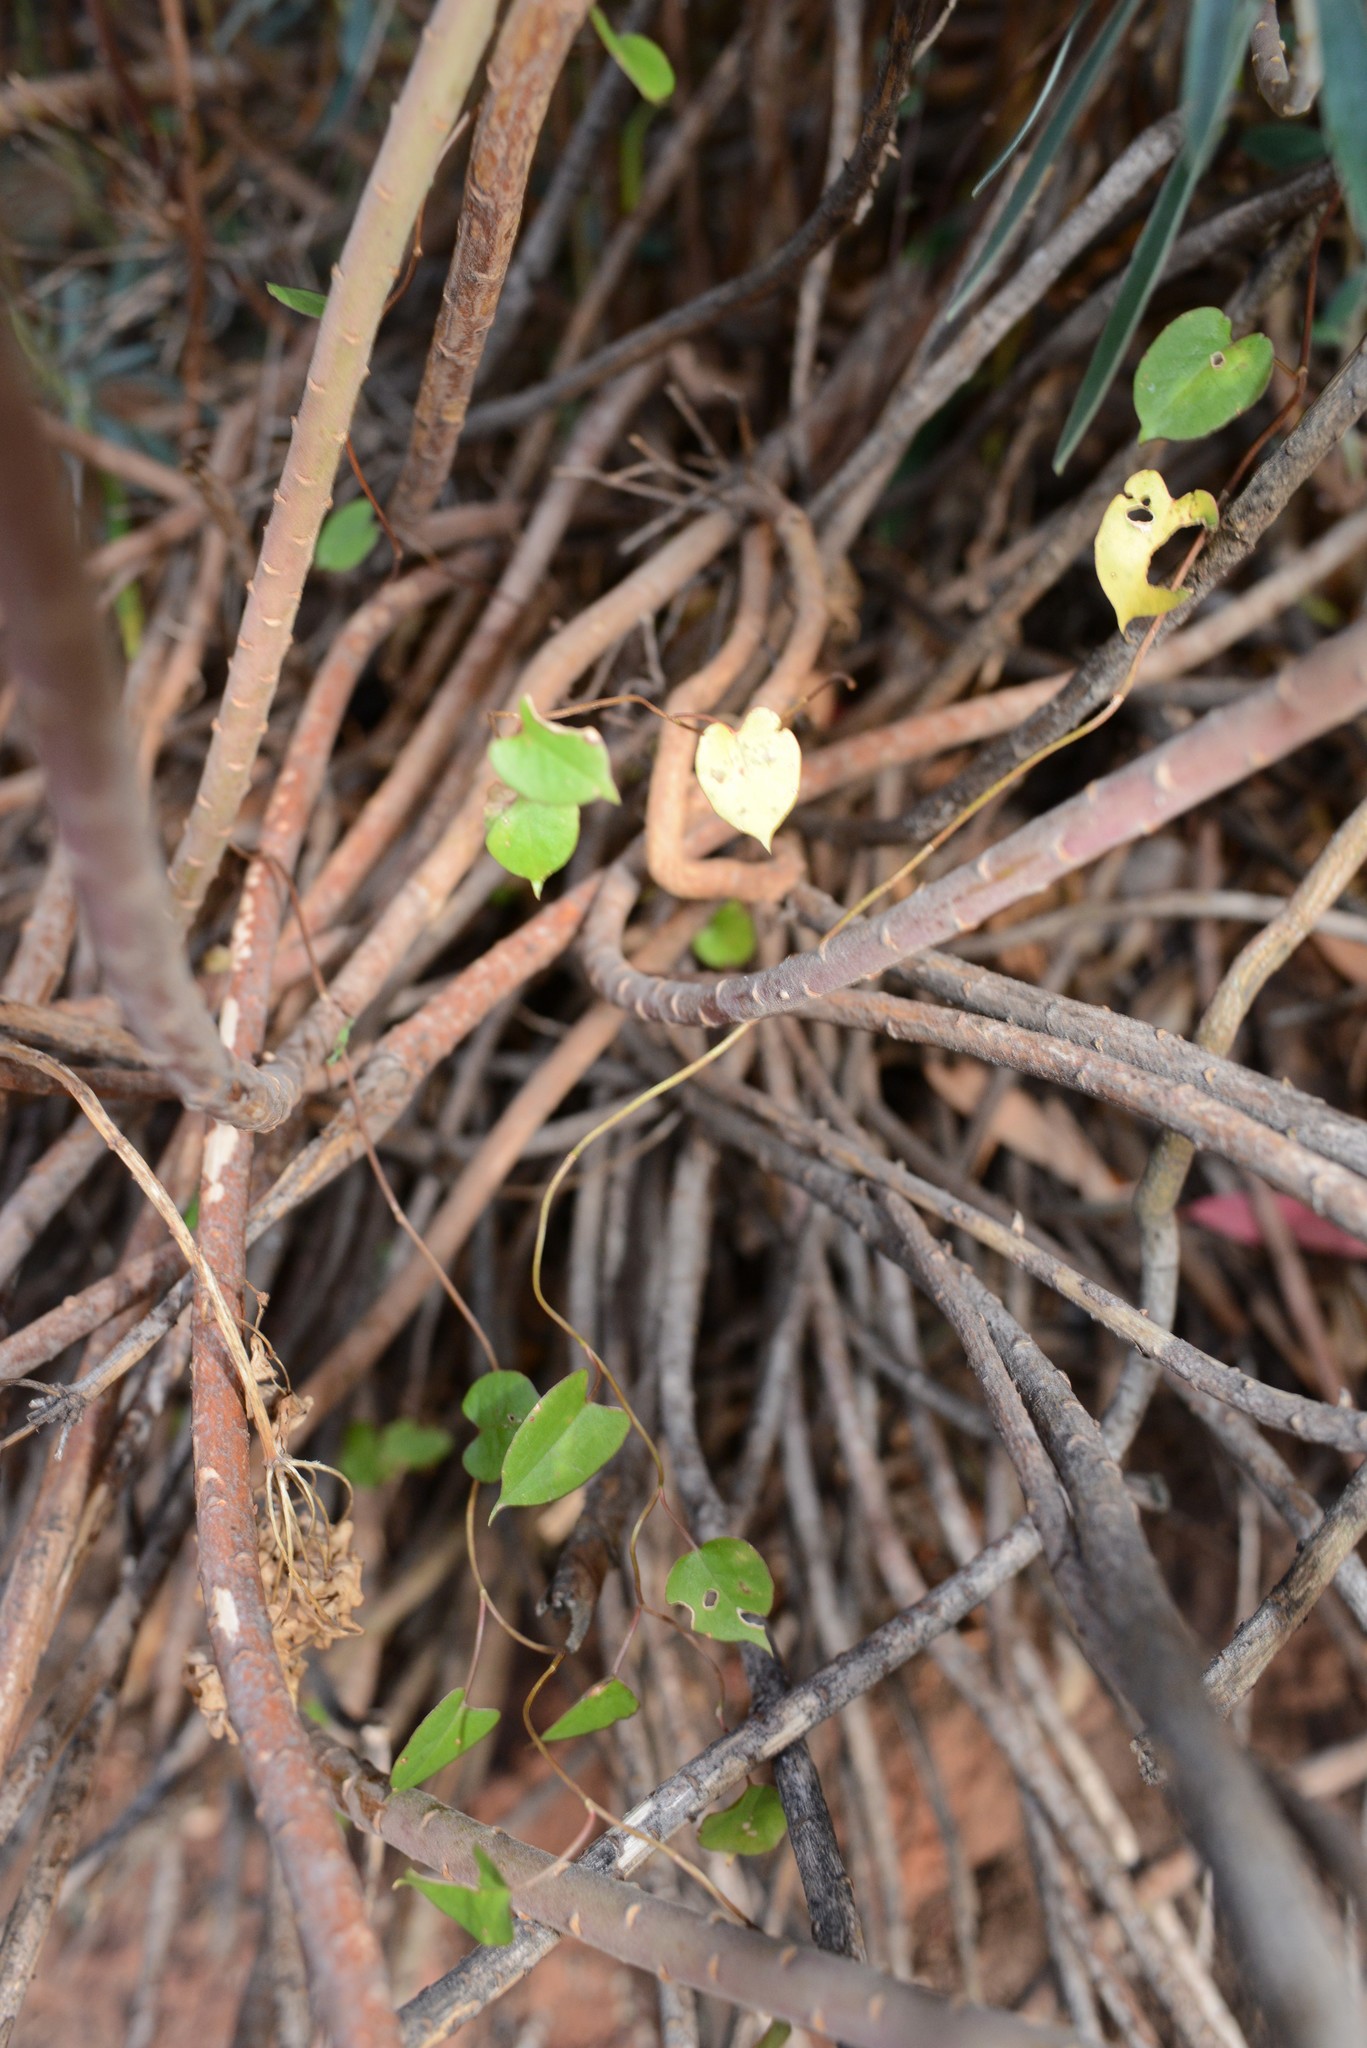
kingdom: Plantae
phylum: Tracheophyta
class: Magnoliopsida
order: Caryophyllales
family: Polygonaceae
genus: Muehlenbeckia
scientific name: Muehlenbeckia australis
